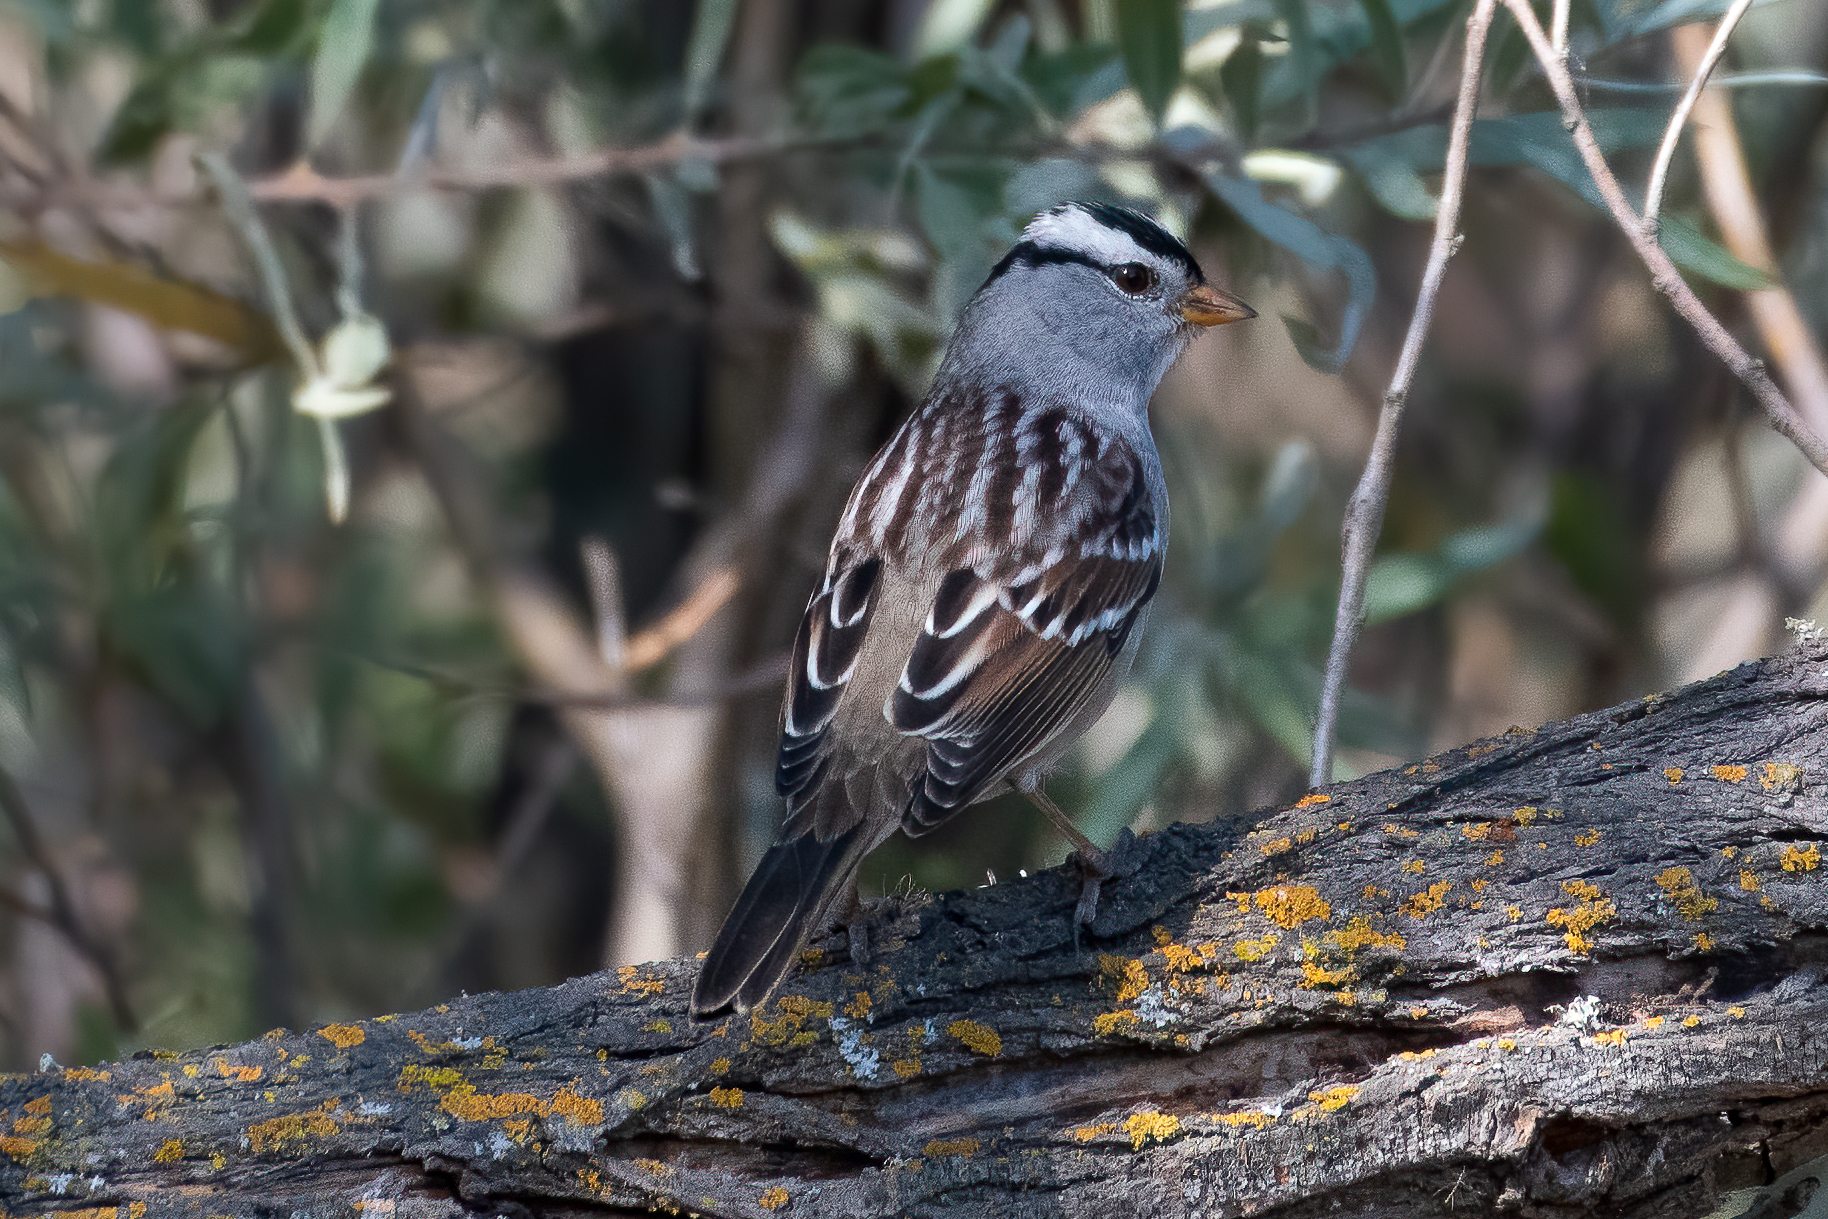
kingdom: Animalia
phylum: Chordata
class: Aves
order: Passeriformes
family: Passerellidae
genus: Zonotrichia
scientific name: Zonotrichia leucophrys
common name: White-crowned sparrow
